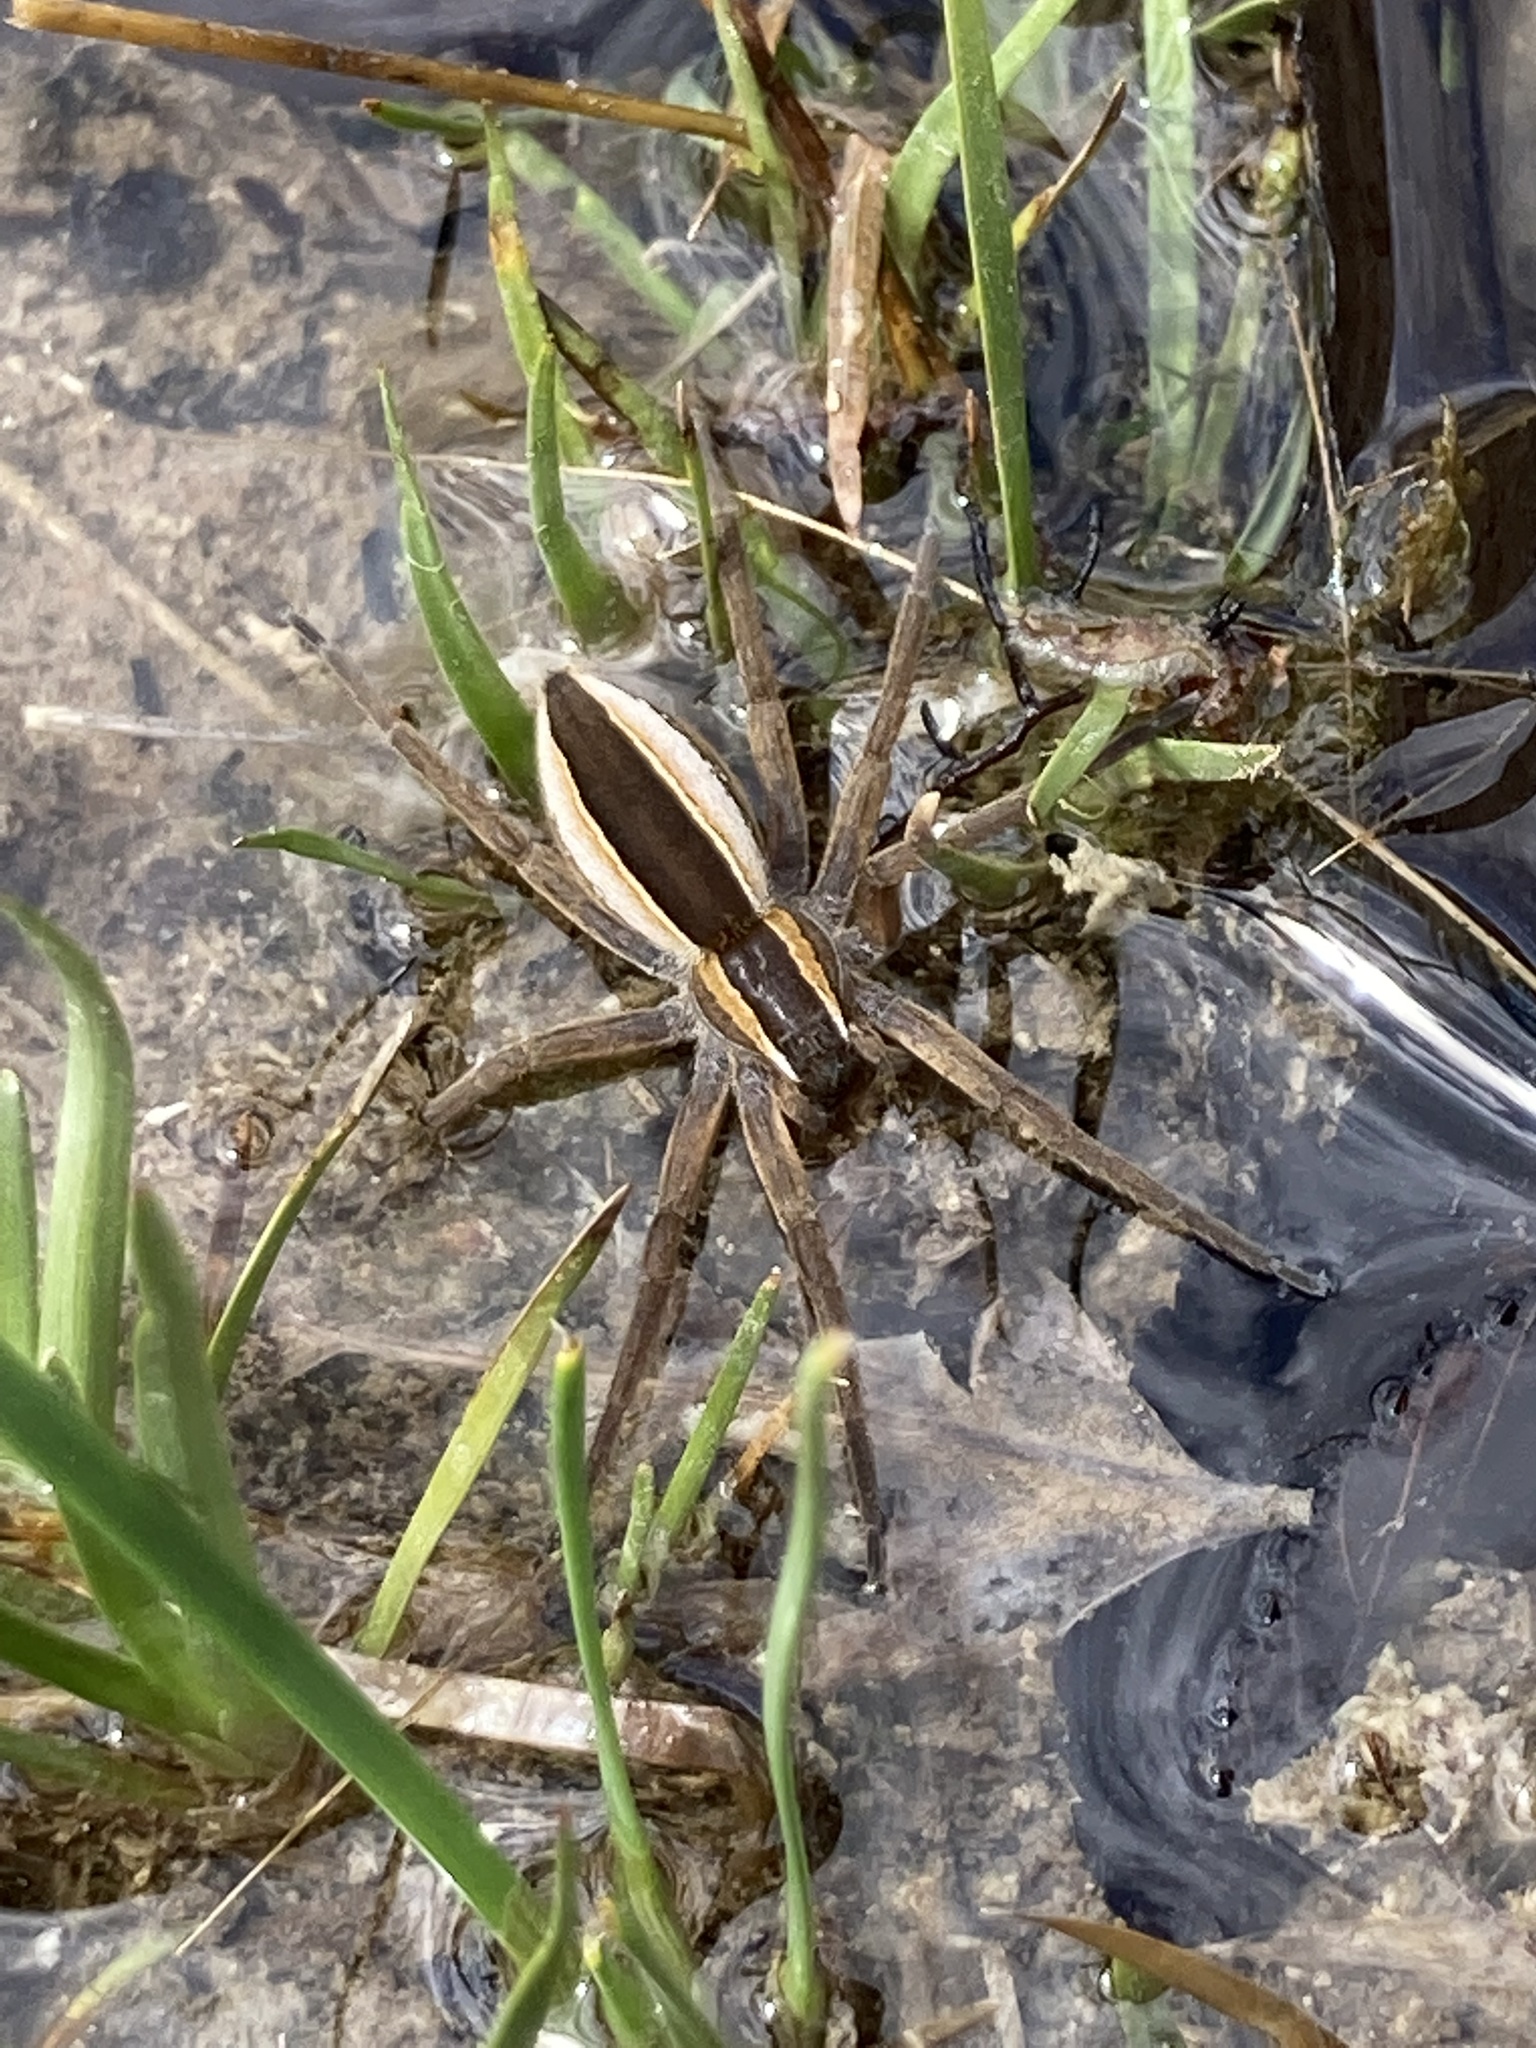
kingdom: Animalia
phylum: Arthropoda
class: Arachnida
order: Araneae
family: Pisauridae
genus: Pisaurina
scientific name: Pisaurina brevipes
